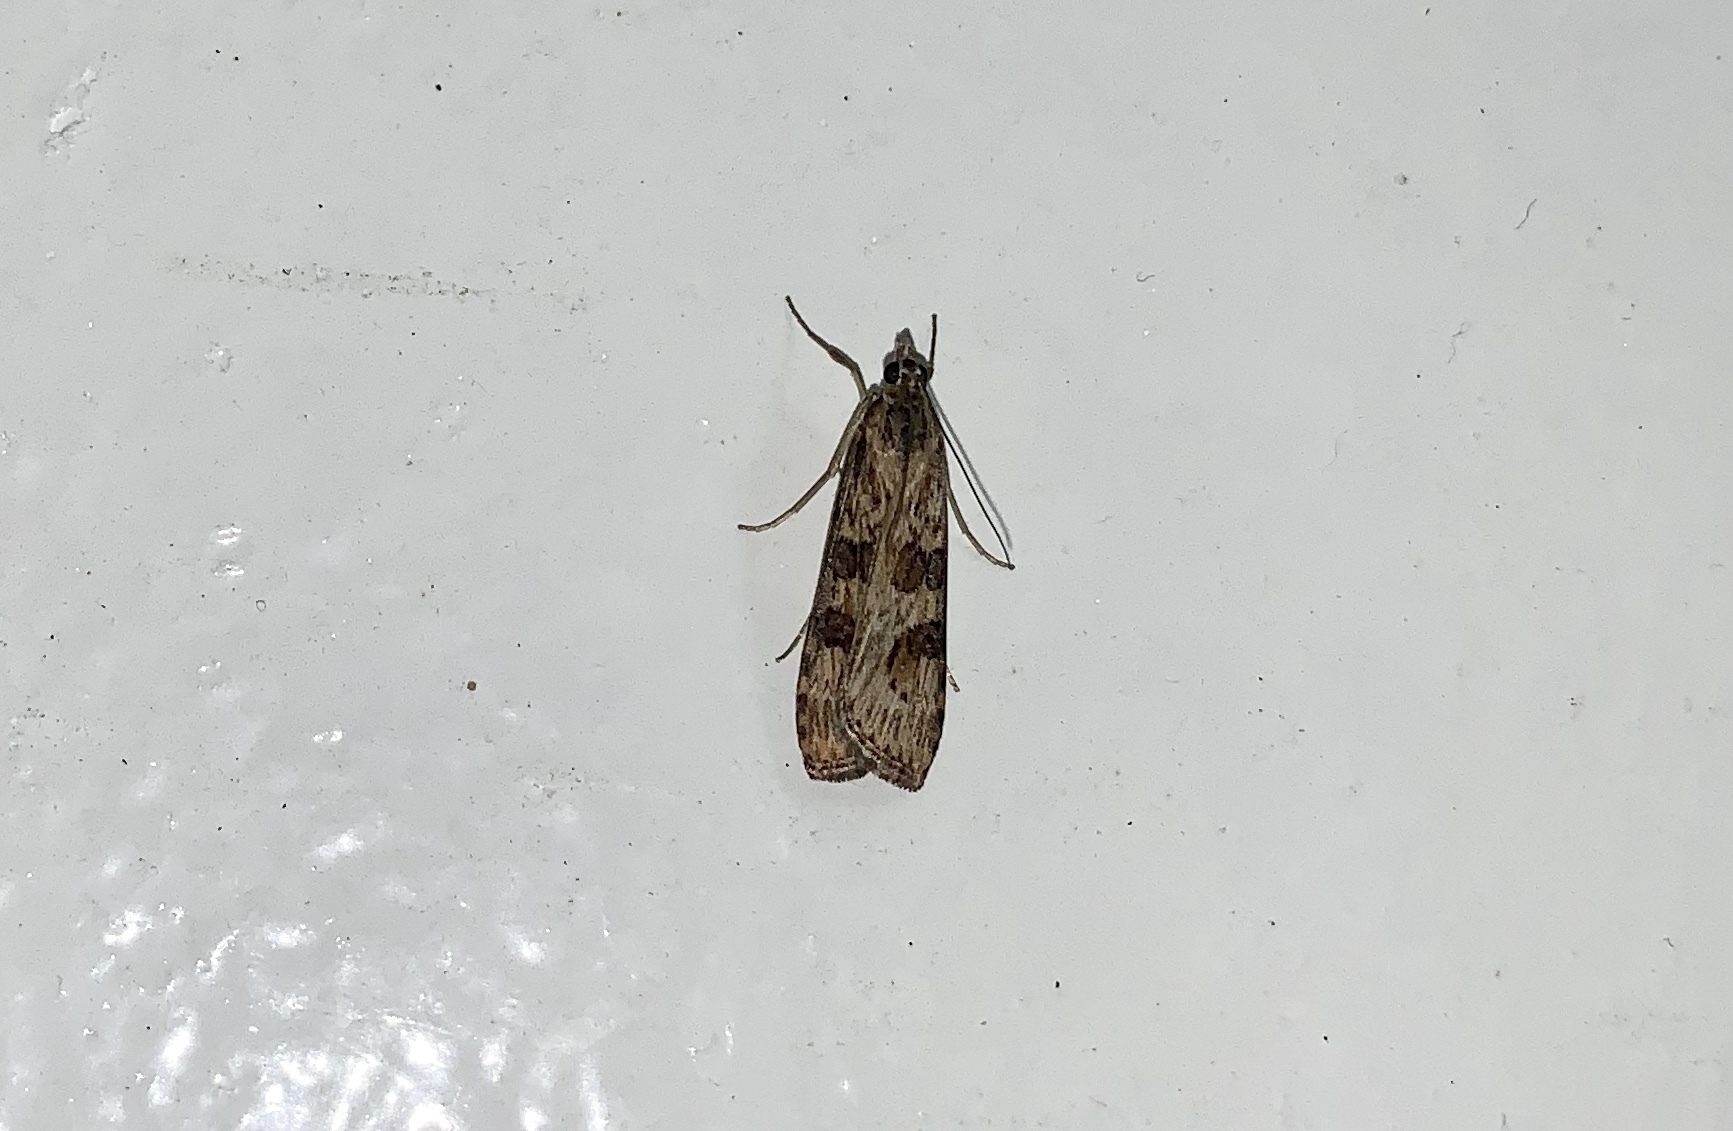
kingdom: Animalia
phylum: Arthropoda
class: Insecta
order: Lepidoptera
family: Crambidae
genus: Nomophila
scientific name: Nomophila nearctica
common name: American rush veneer
